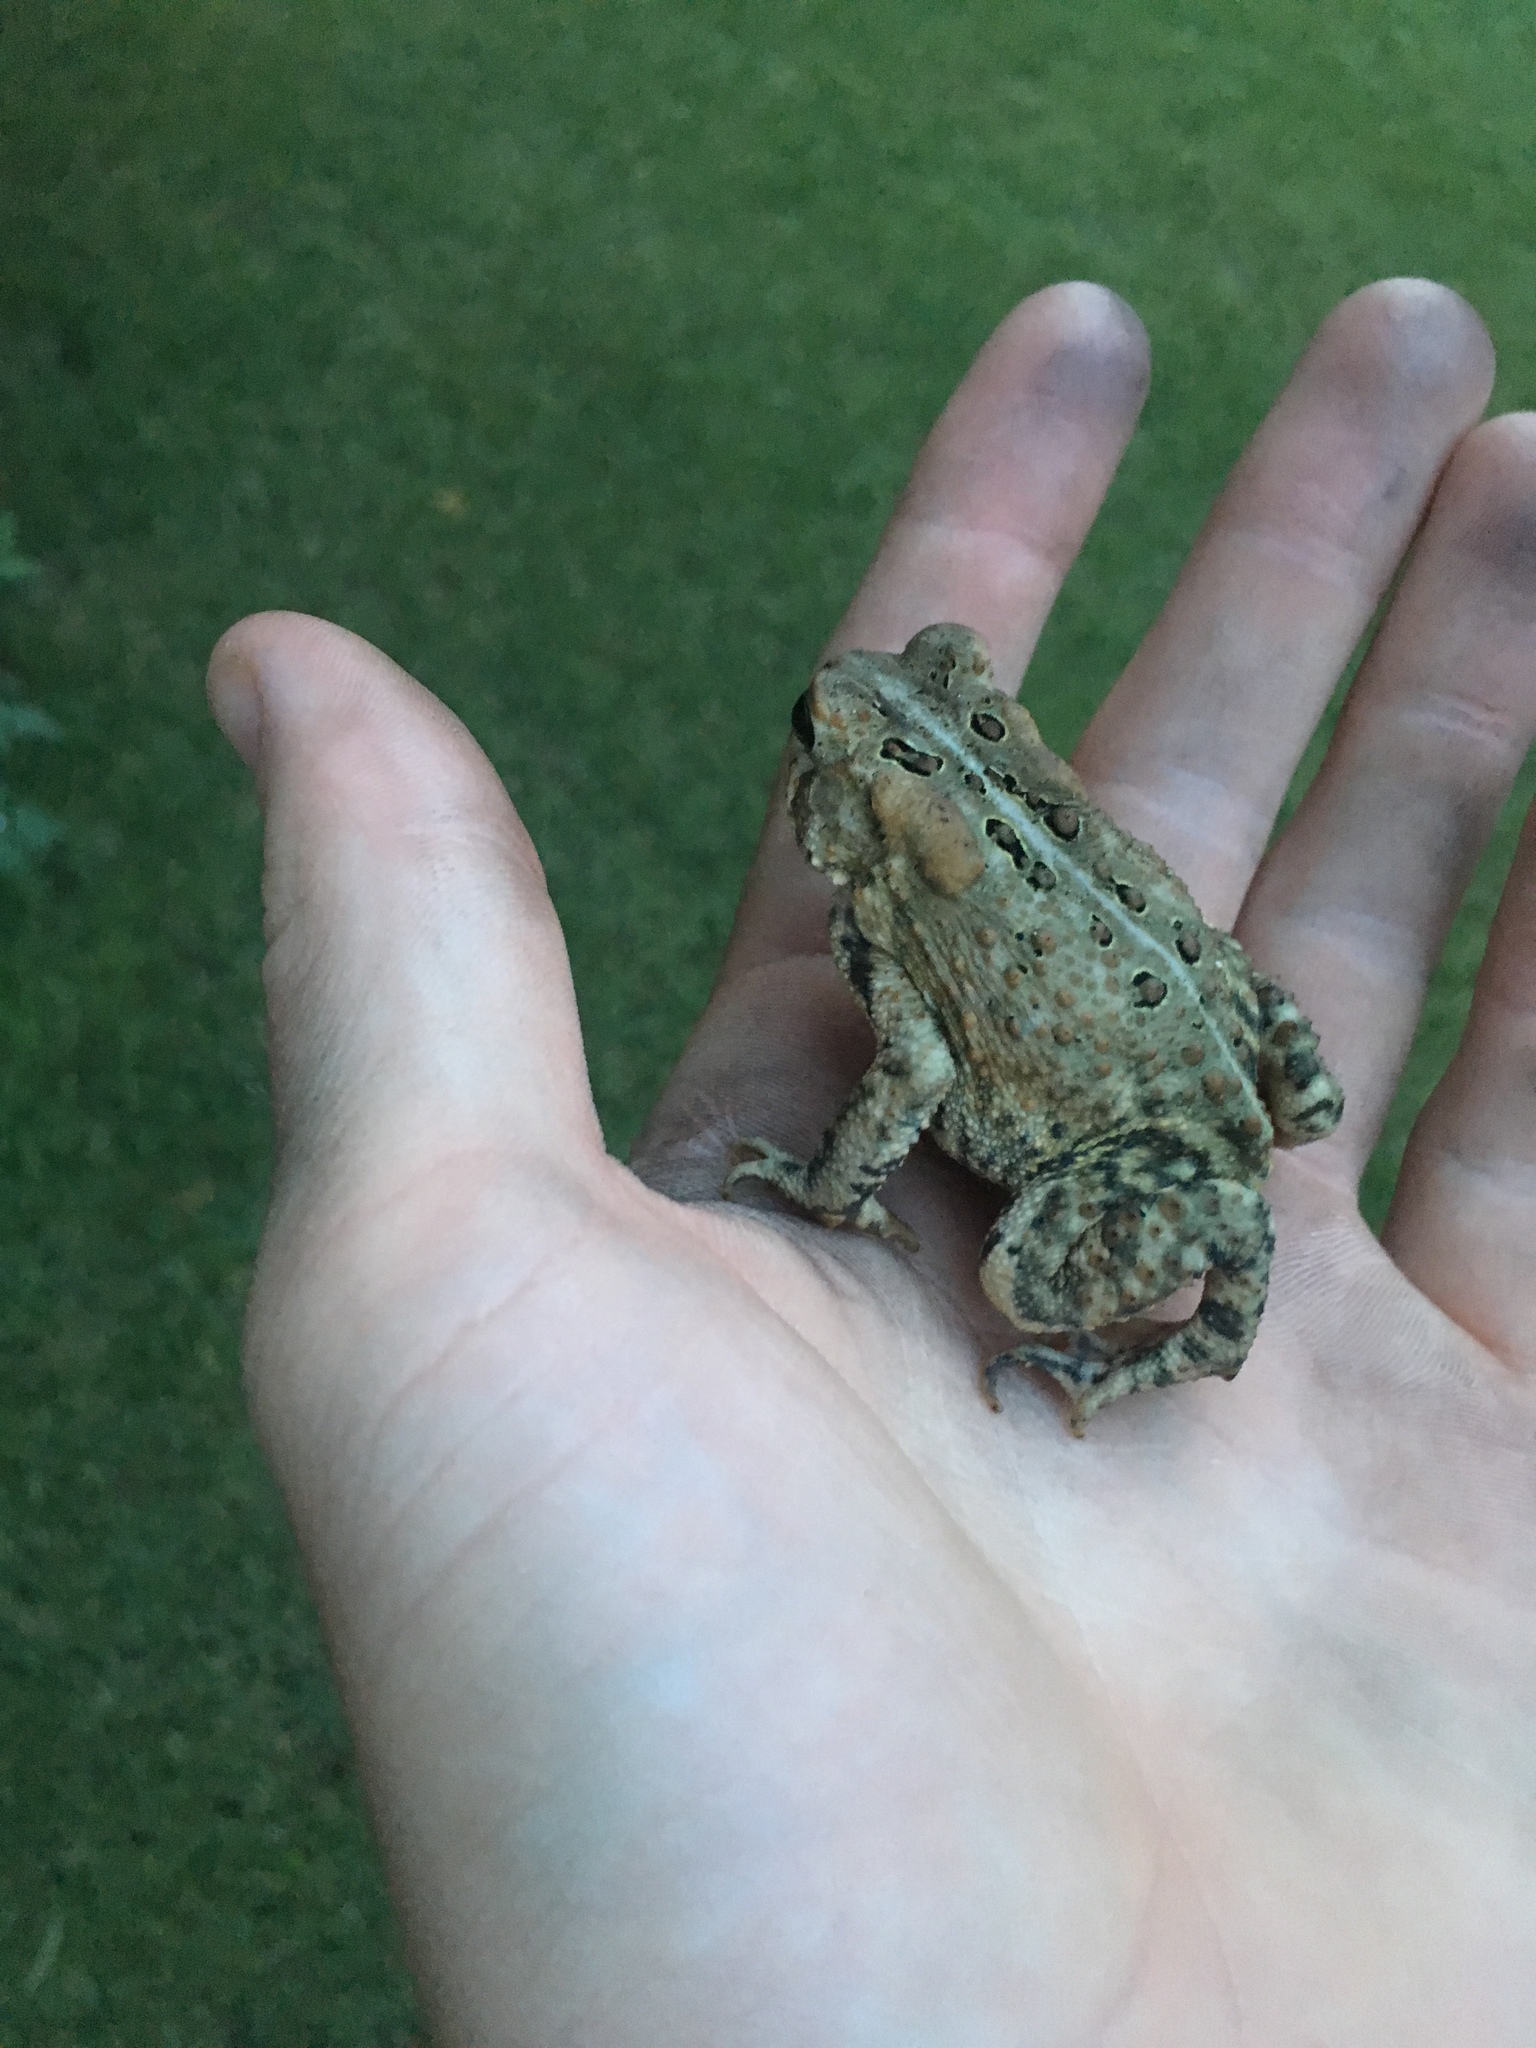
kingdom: Animalia
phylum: Chordata
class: Amphibia
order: Anura
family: Bufonidae
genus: Anaxyrus
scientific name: Anaxyrus americanus
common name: American toad
